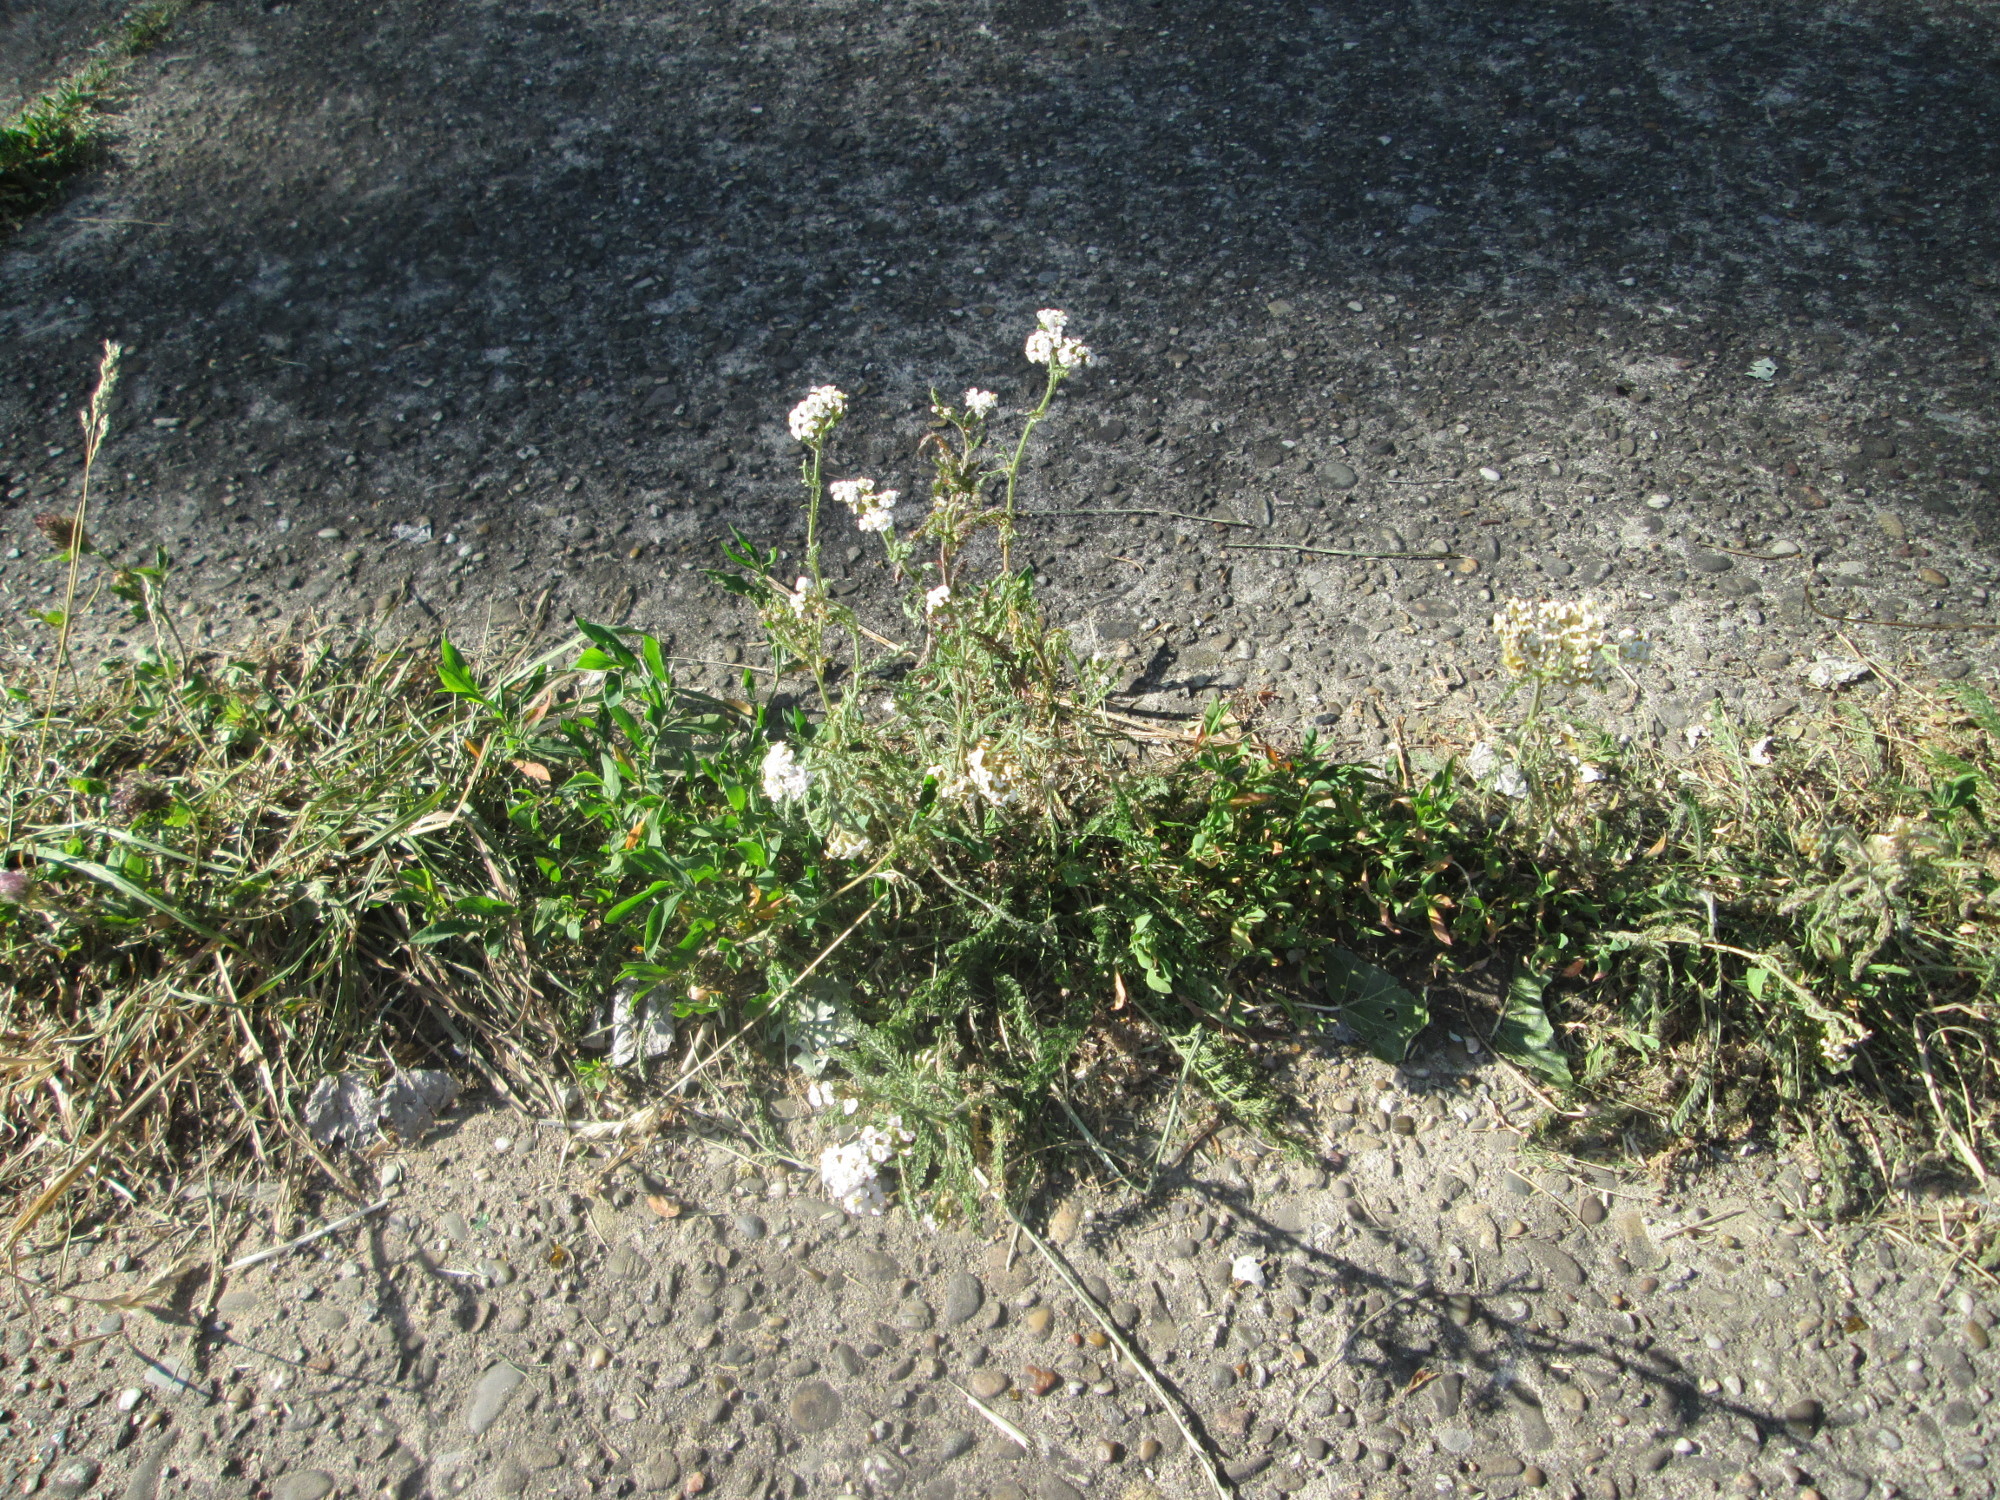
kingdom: Plantae
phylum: Tracheophyta
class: Magnoliopsida
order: Asterales
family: Asteraceae
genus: Achillea
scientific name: Achillea millefolium
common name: Yarrow
